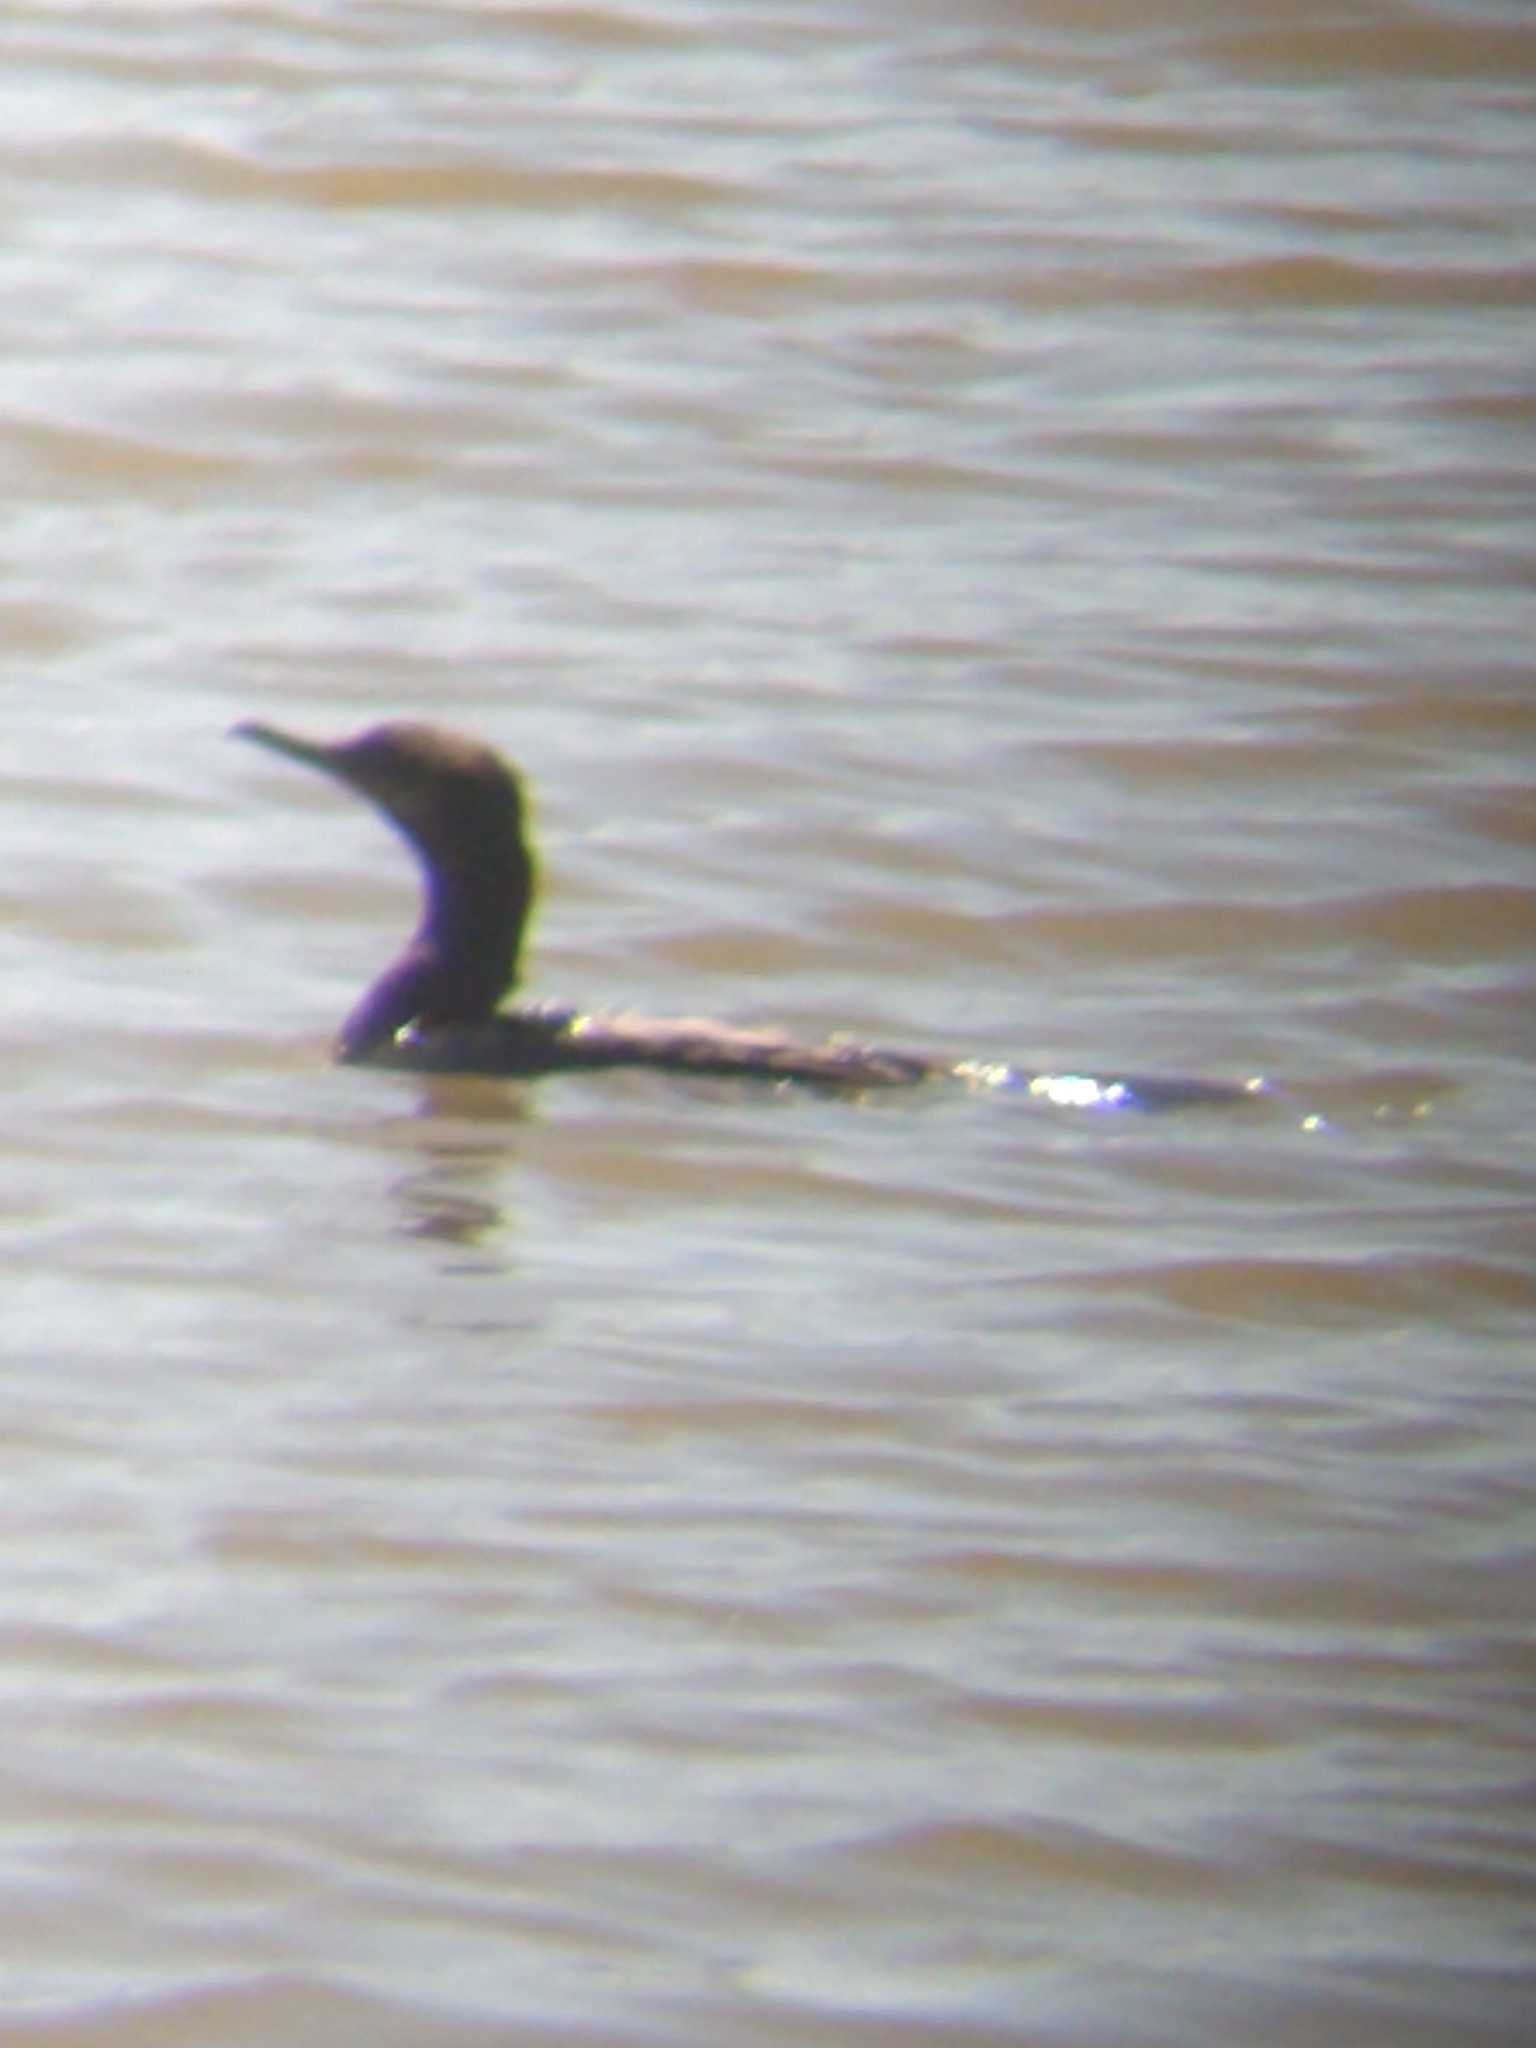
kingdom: Animalia
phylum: Chordata
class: Aves
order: Suliformes
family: Phalacrocoracidae
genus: Phalacrocorax
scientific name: Phalacrocorax brasilianus
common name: Neotropic cormorant
